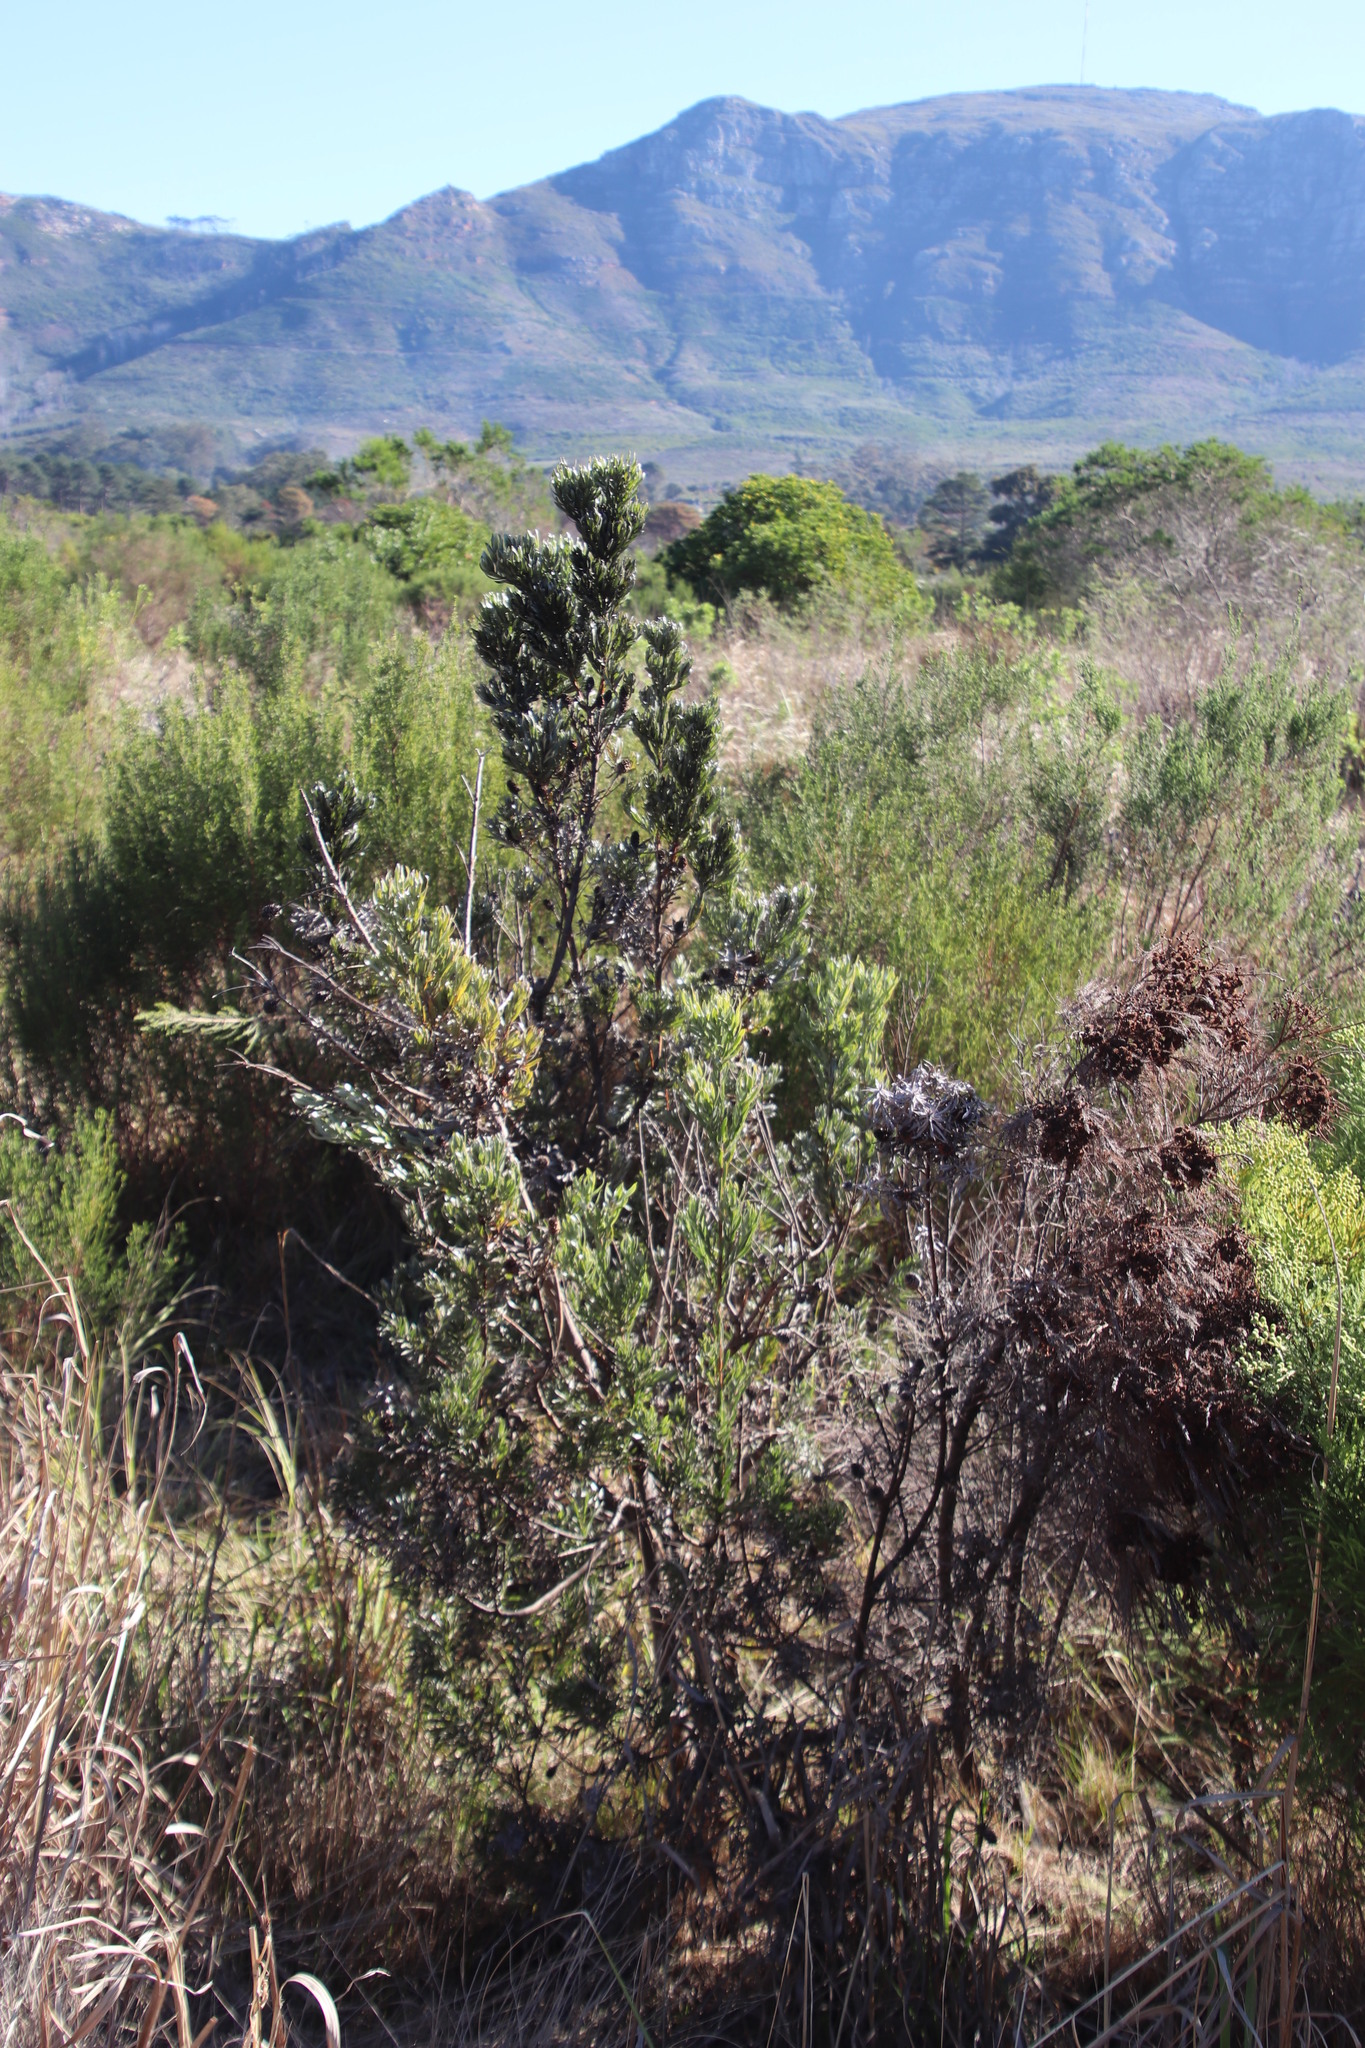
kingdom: Plantae
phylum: Tracheophyta
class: Magnoliopsida
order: Proteales
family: Proteaceae
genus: Leucadendron
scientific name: Leucadendron floridum
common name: Flats conebush
